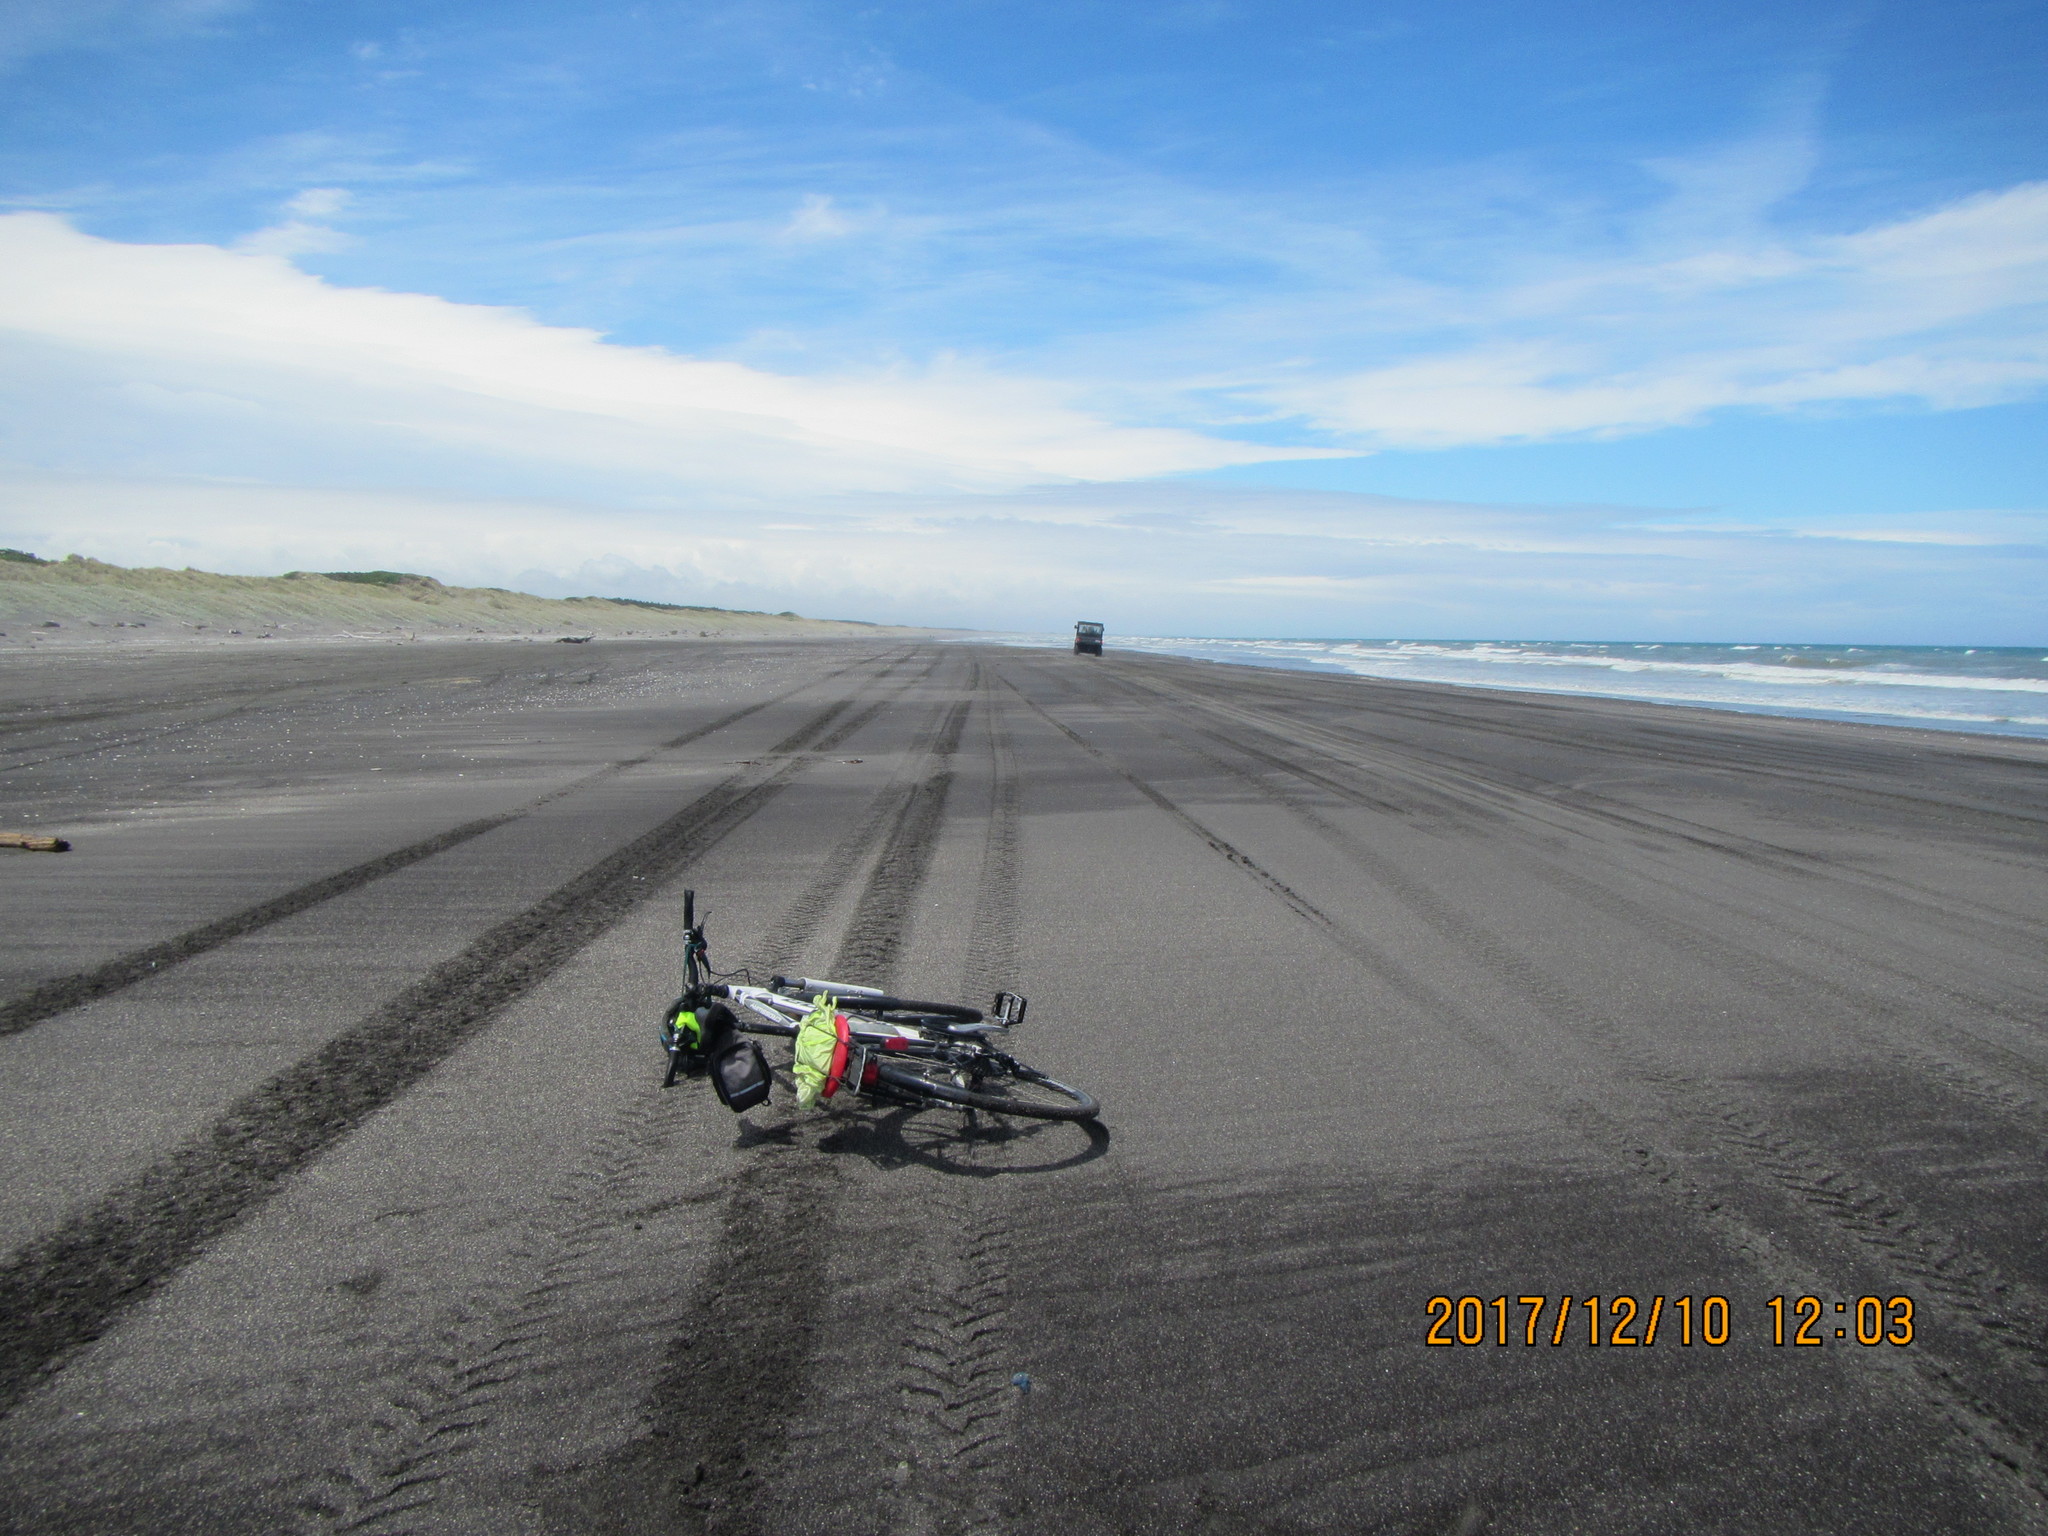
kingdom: Animalia
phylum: Cnidaria
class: Hydrozoa
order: Siphonophorae
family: Physaliidae
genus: Physalia
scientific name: Physalia physalis
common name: Portuguese man-of-war
